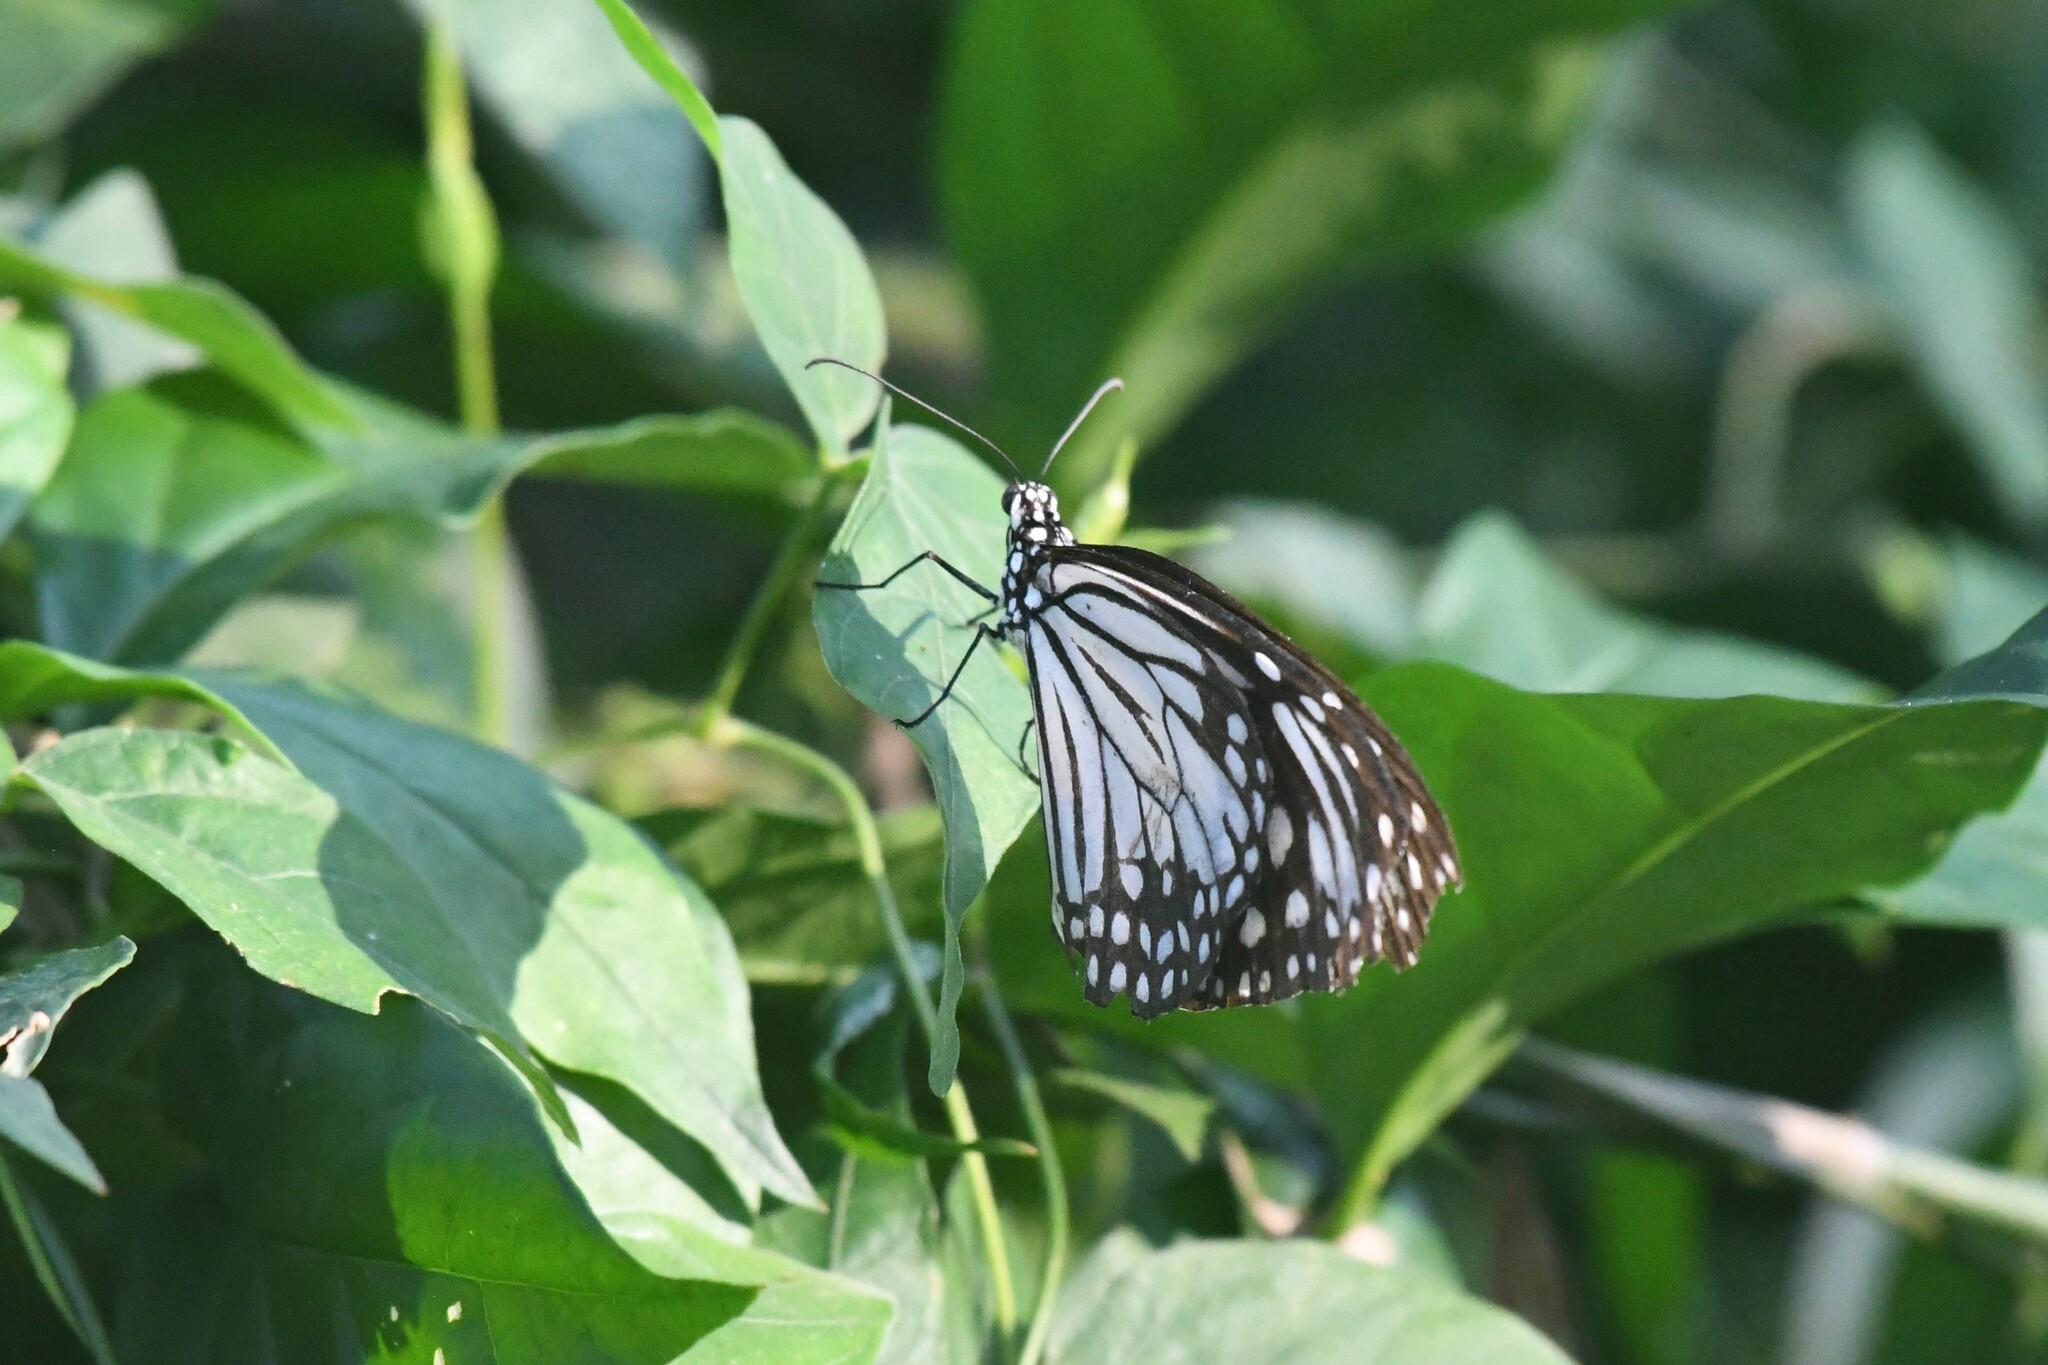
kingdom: Animalia
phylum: Arthropoda
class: Insecta
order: Lepidoptera
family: Nymphalidae
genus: Parantica
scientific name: Parantica aglea
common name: Glassy tiger
